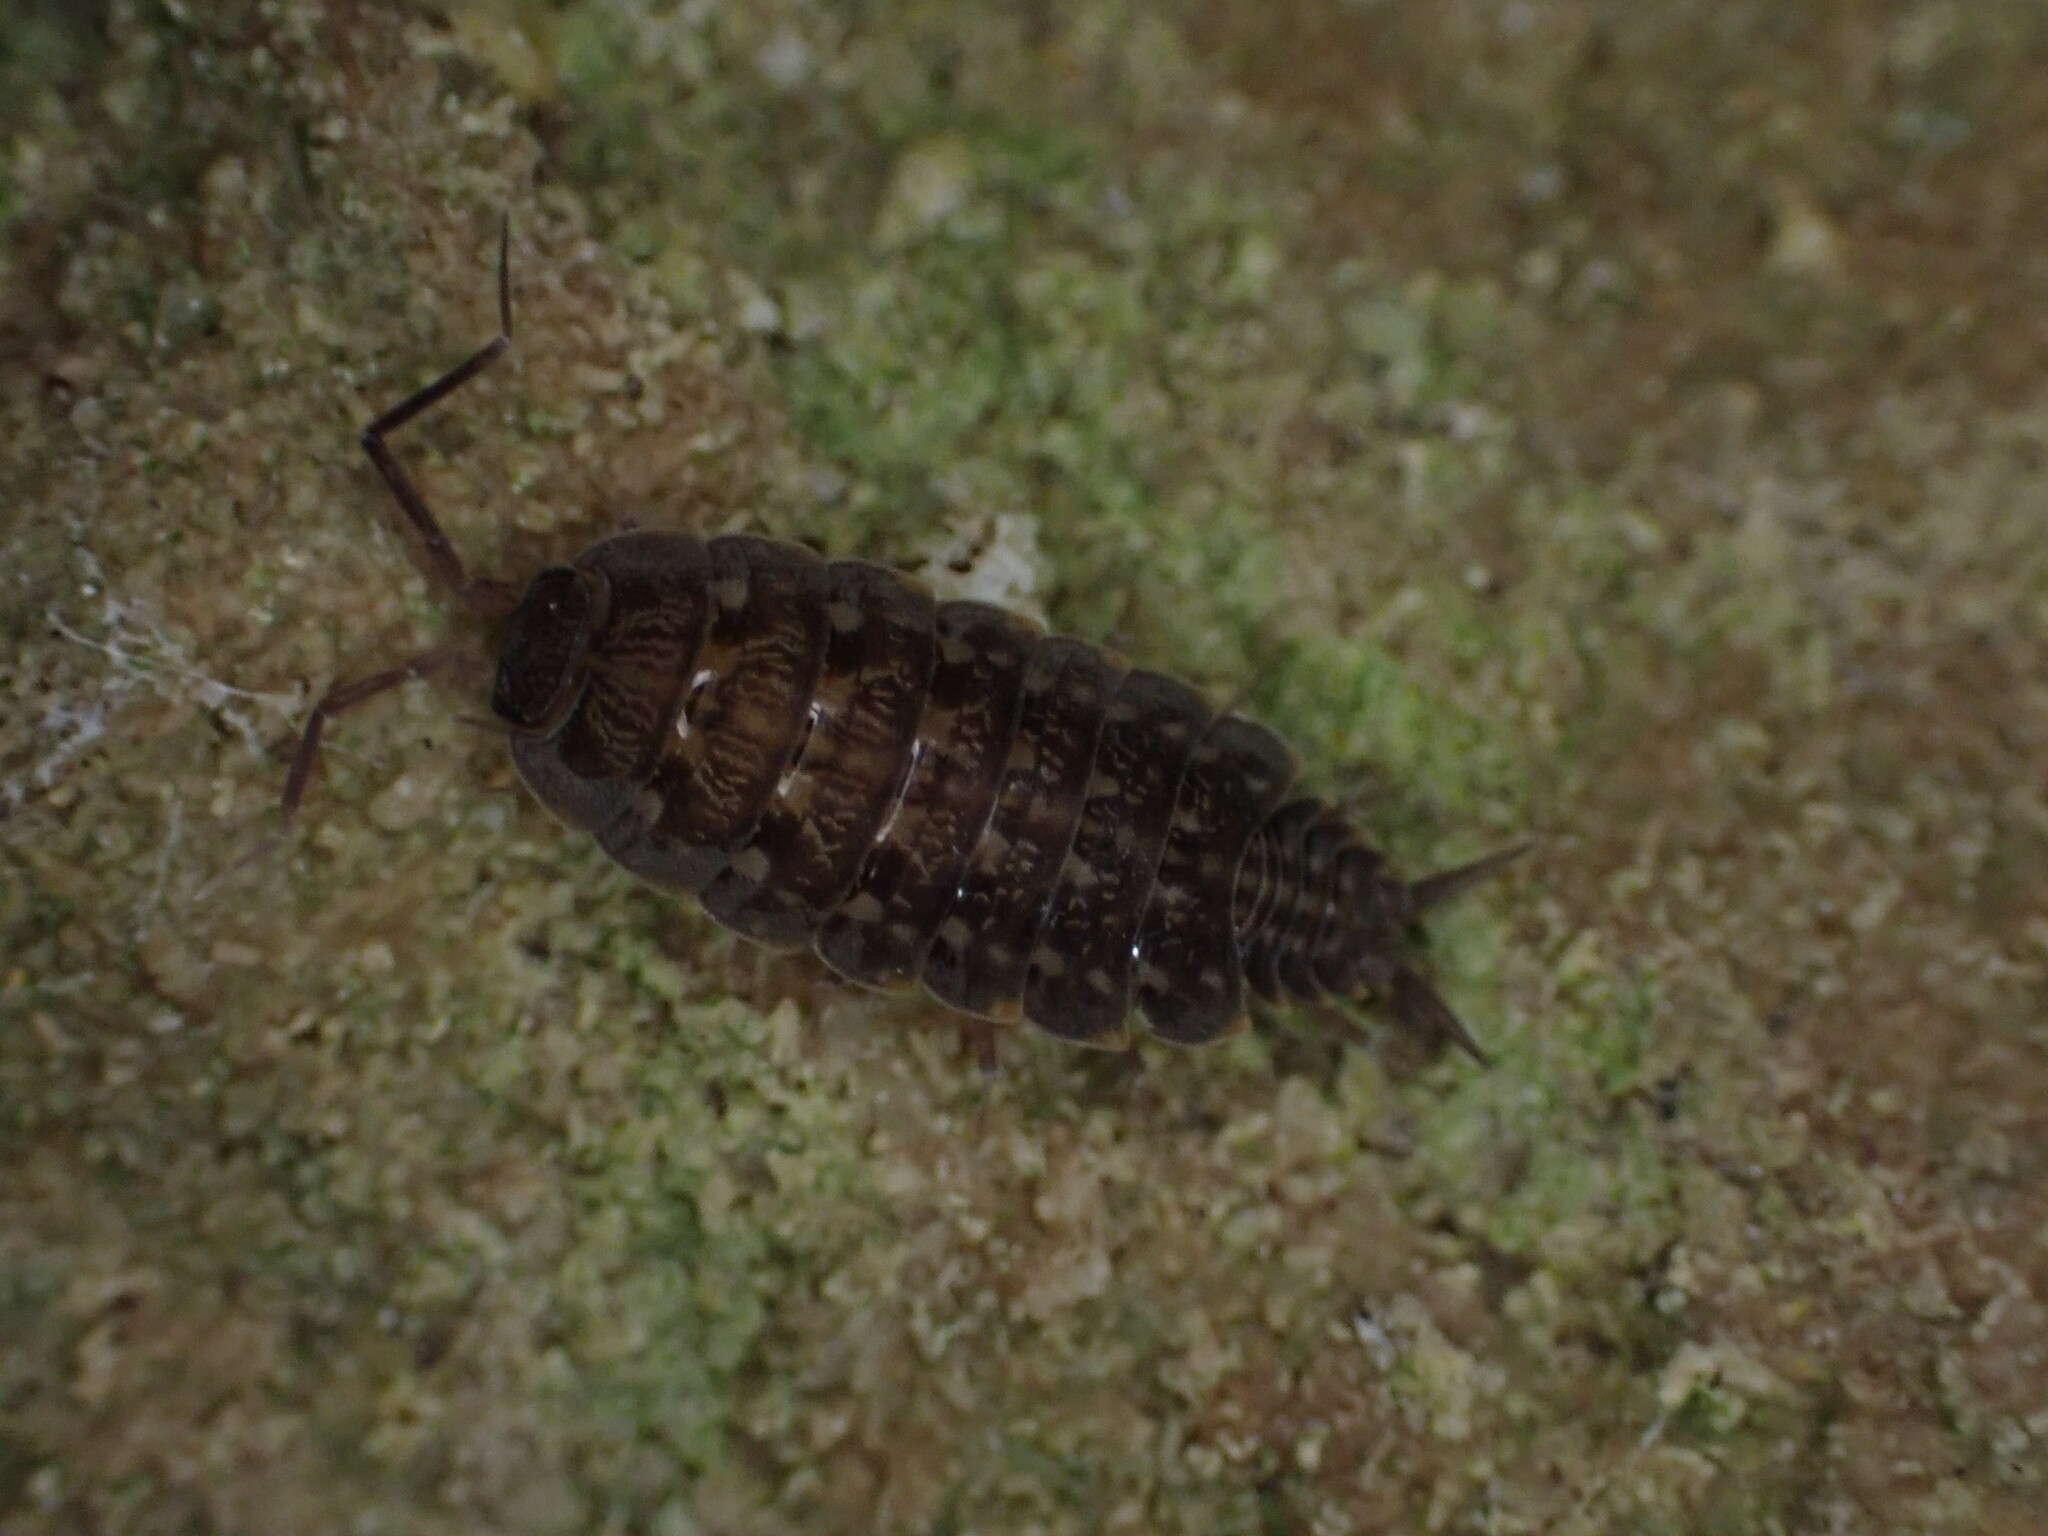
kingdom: Animalia
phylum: Arthropoda
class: Malacostraca
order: Isopoda
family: Agnaridae
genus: Orthometopon
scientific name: Orthometopon planum
